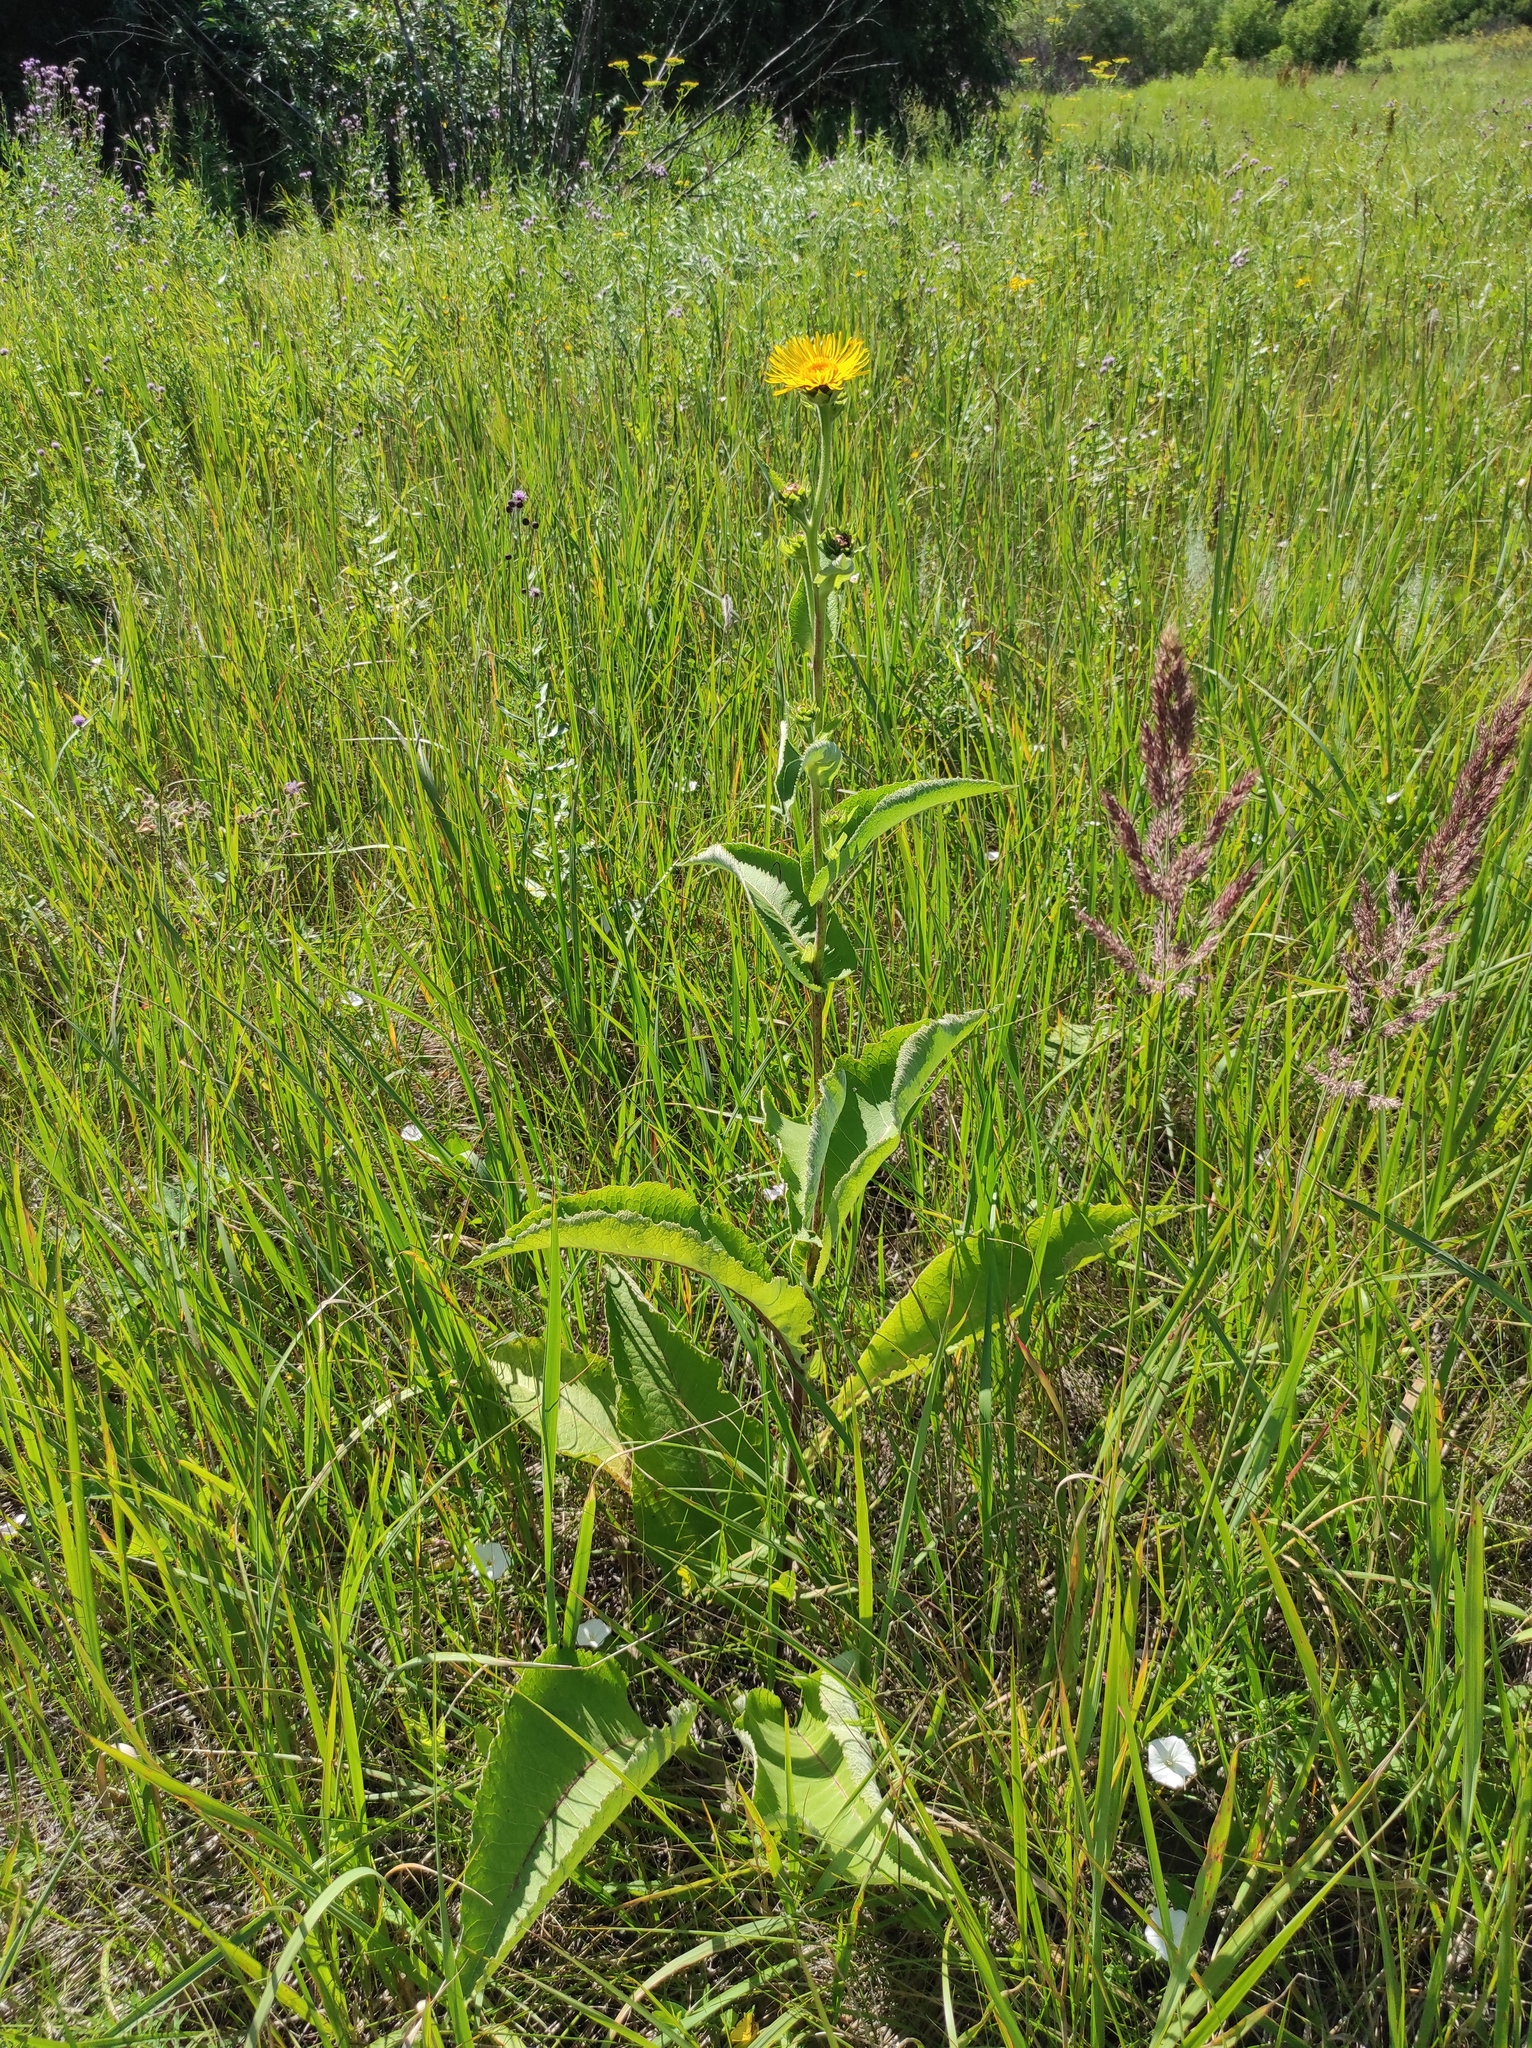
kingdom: Plantae
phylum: Tracheophyta
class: Magnoliopsida
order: Asterales
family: Asteraceae
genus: Inula
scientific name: Inula helenium
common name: Elecampane
